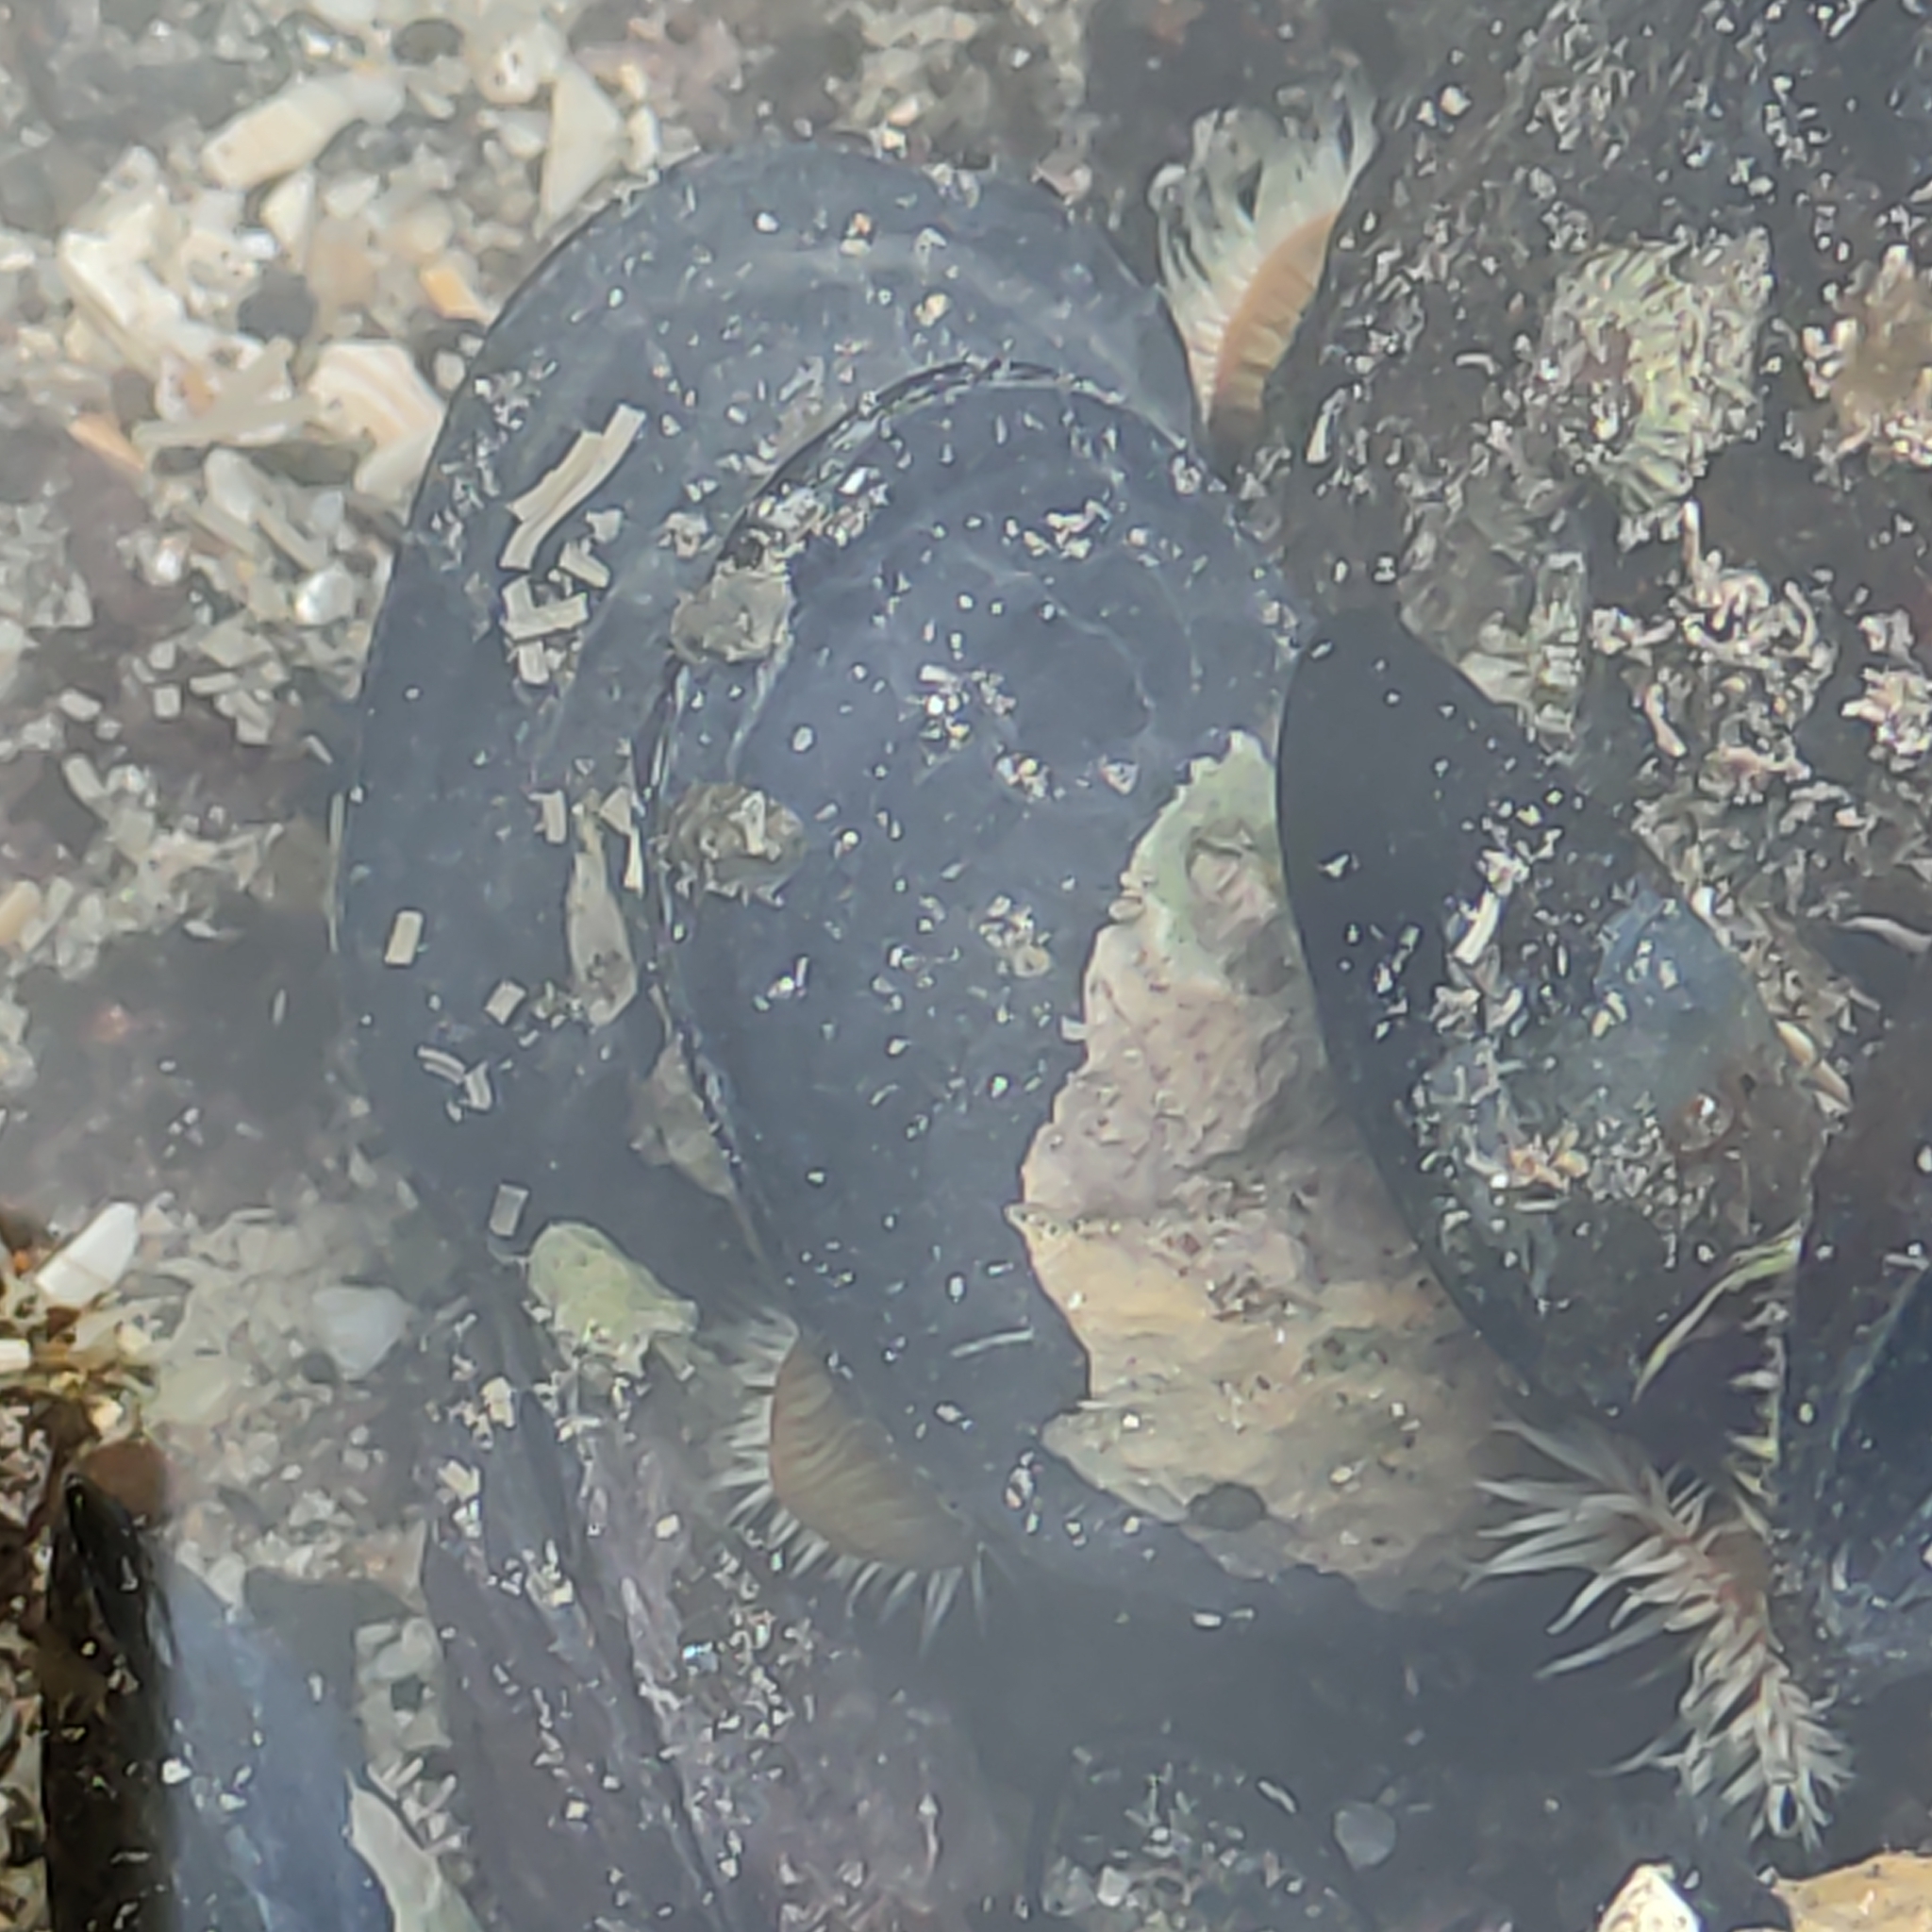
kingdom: Animalia
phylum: Mollusca
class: Bivalvia
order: Mytilida
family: Mytilidae
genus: Mytilus
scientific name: Mytilus planulatus
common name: Australian mussel
